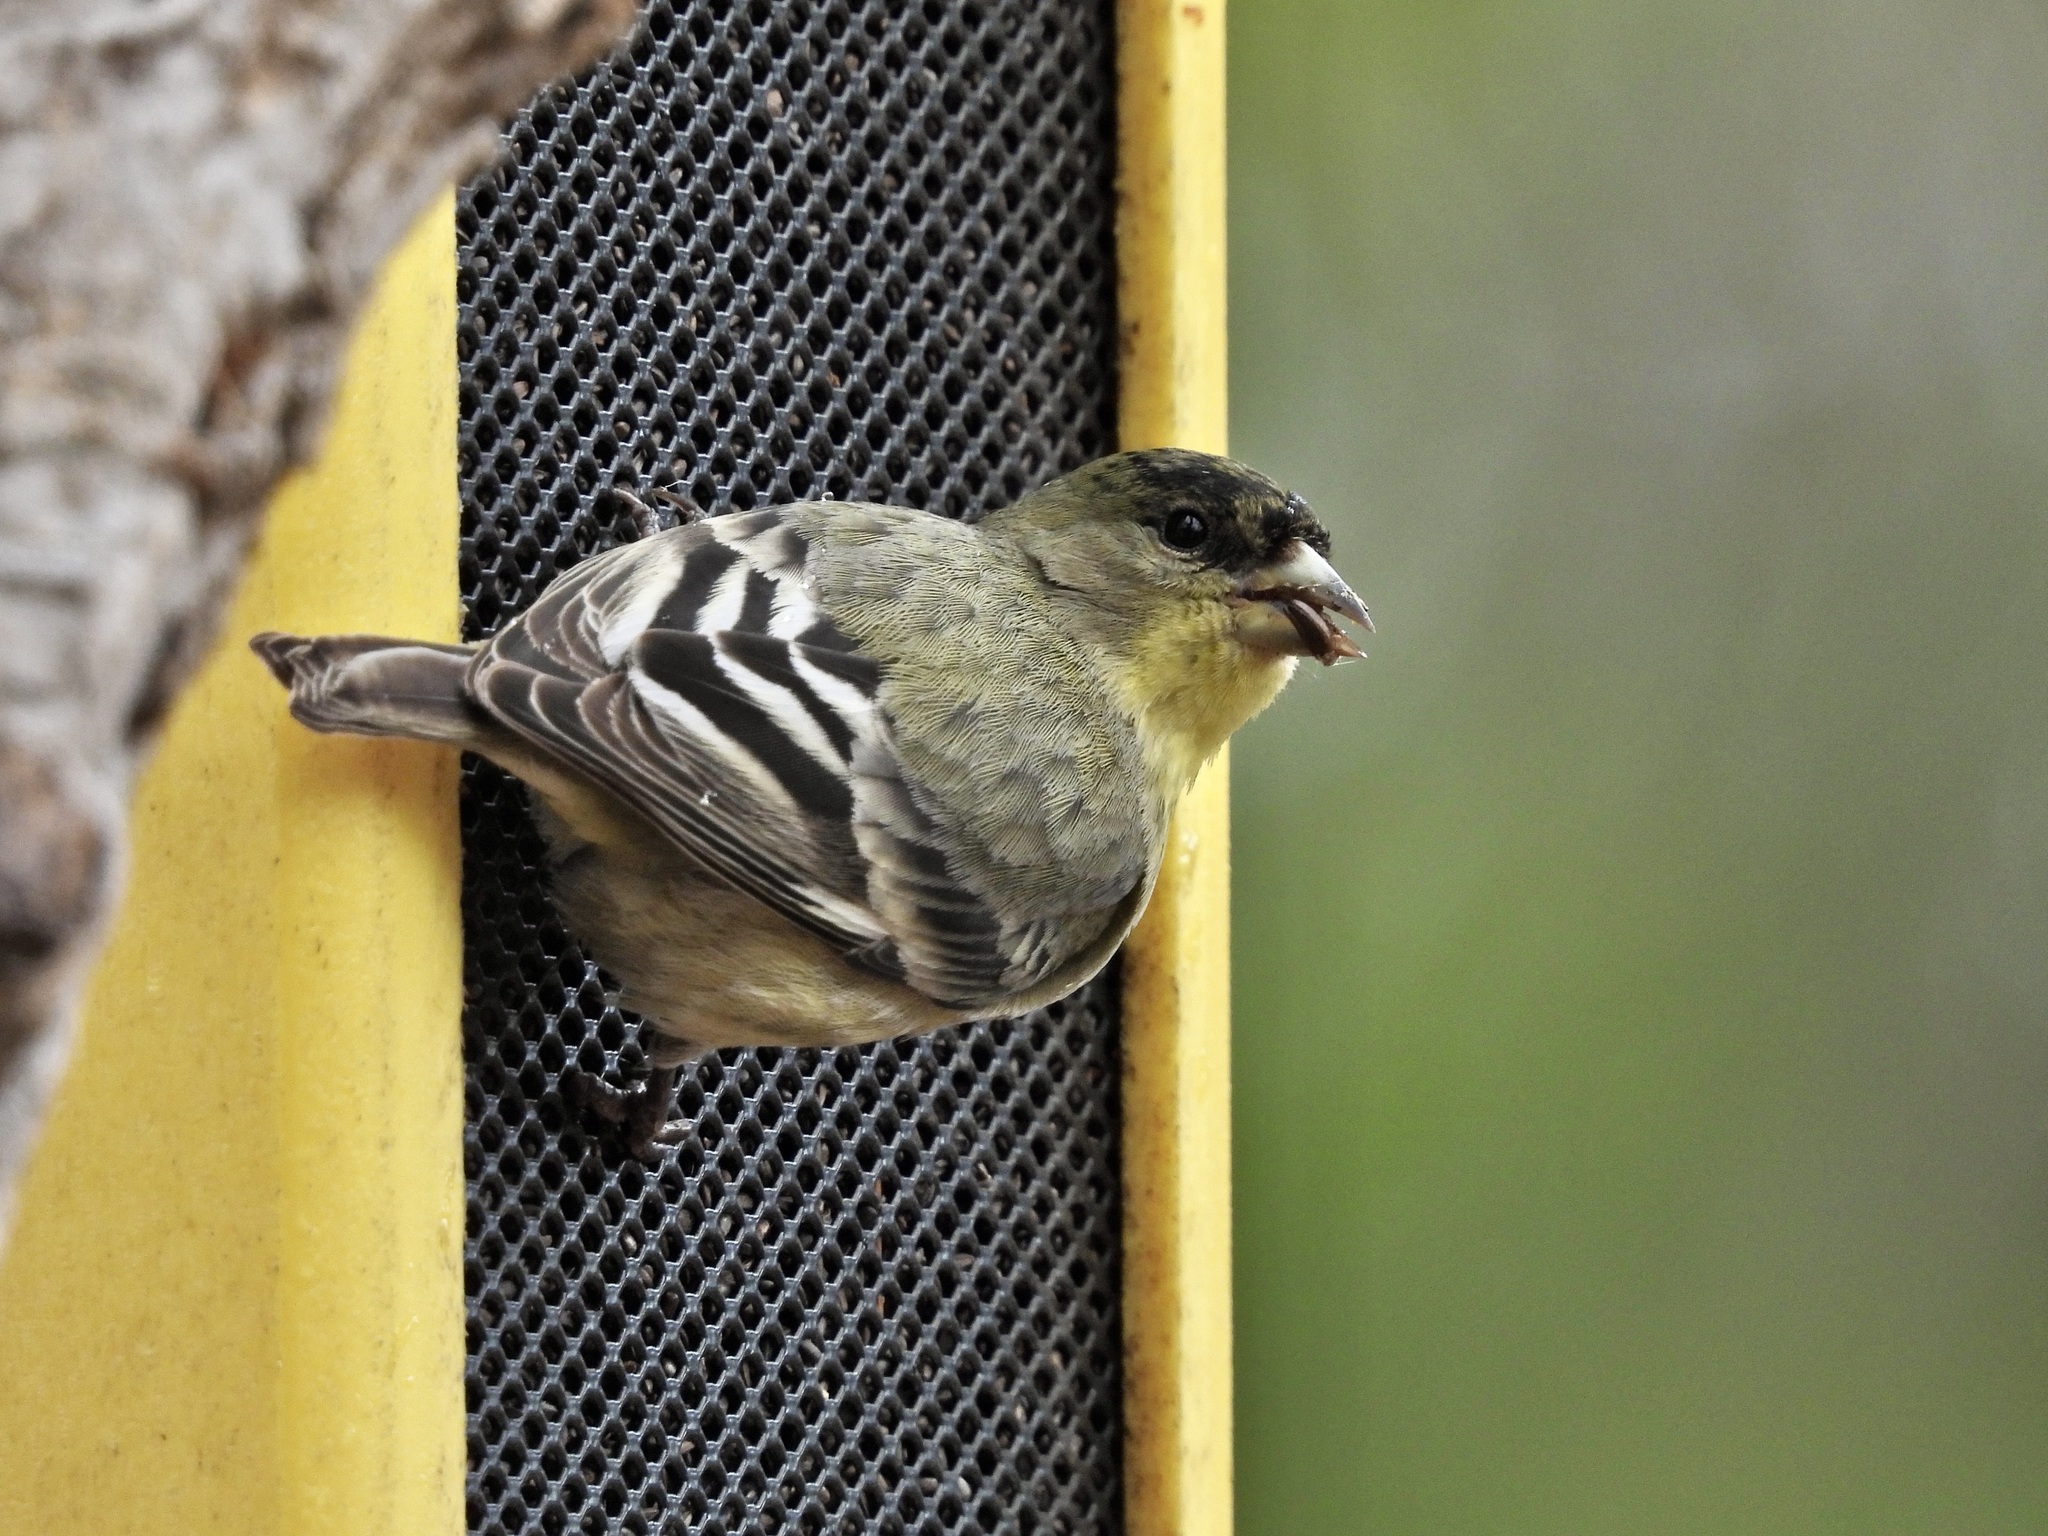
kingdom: Animalia
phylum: Chordata
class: Aves
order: Passeriformes
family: Fringillidae
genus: Spinus
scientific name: Spinus psaltria
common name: Lesser goldfinch
